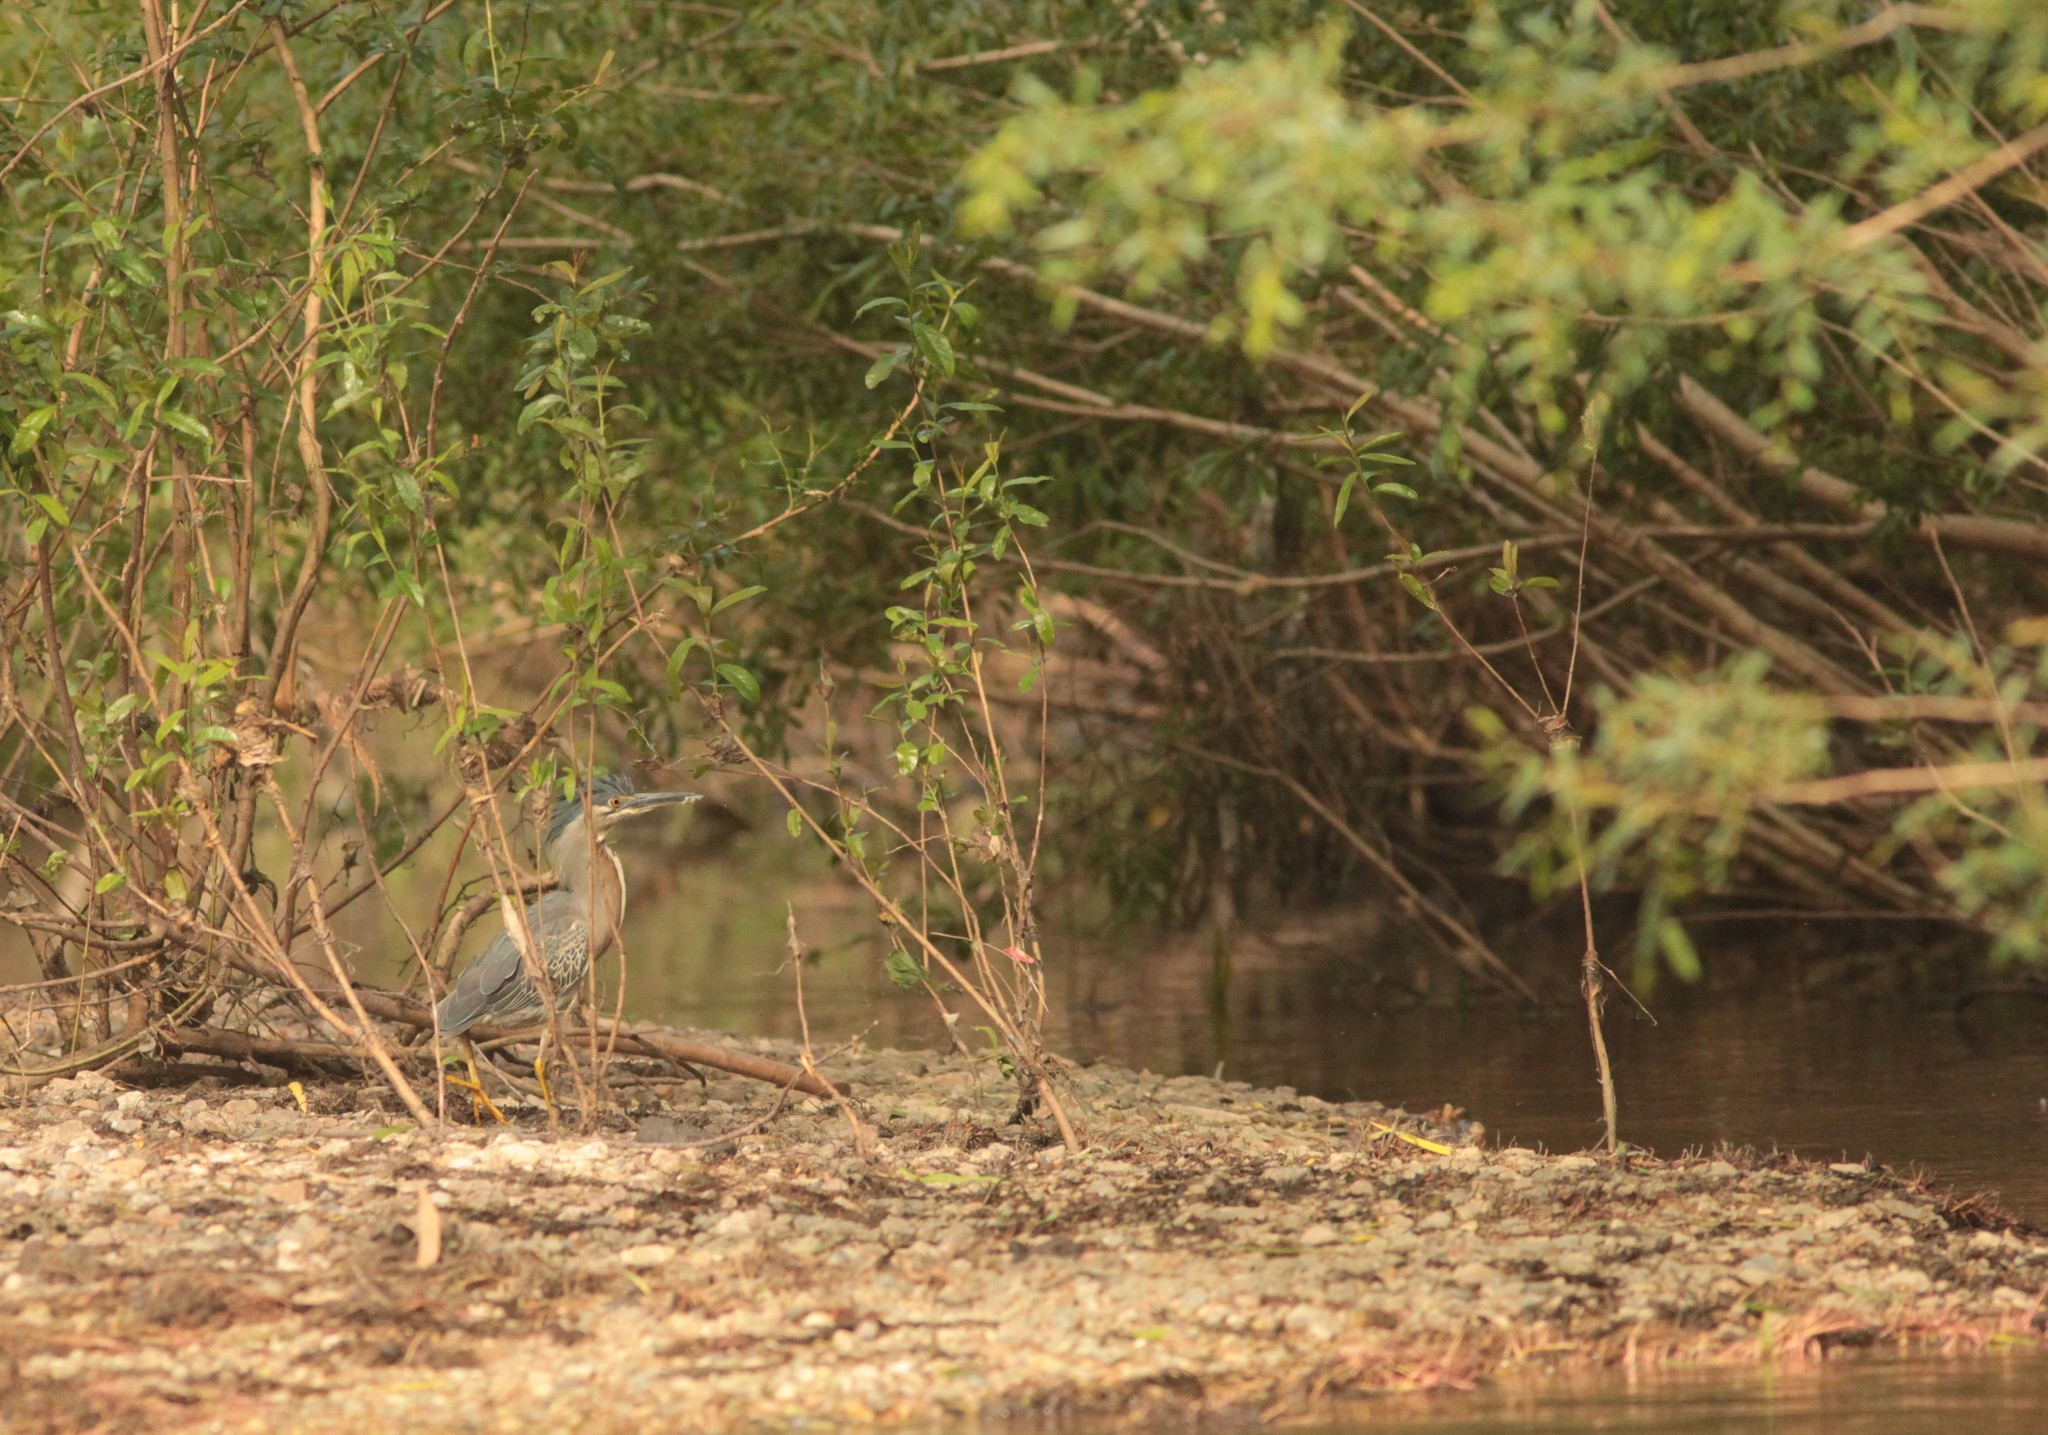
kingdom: Animalia
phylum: Chordata
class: Aves
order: Pelecaniformes
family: Ardeidae
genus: Butorides
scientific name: Butorides striata
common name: Striated heron
